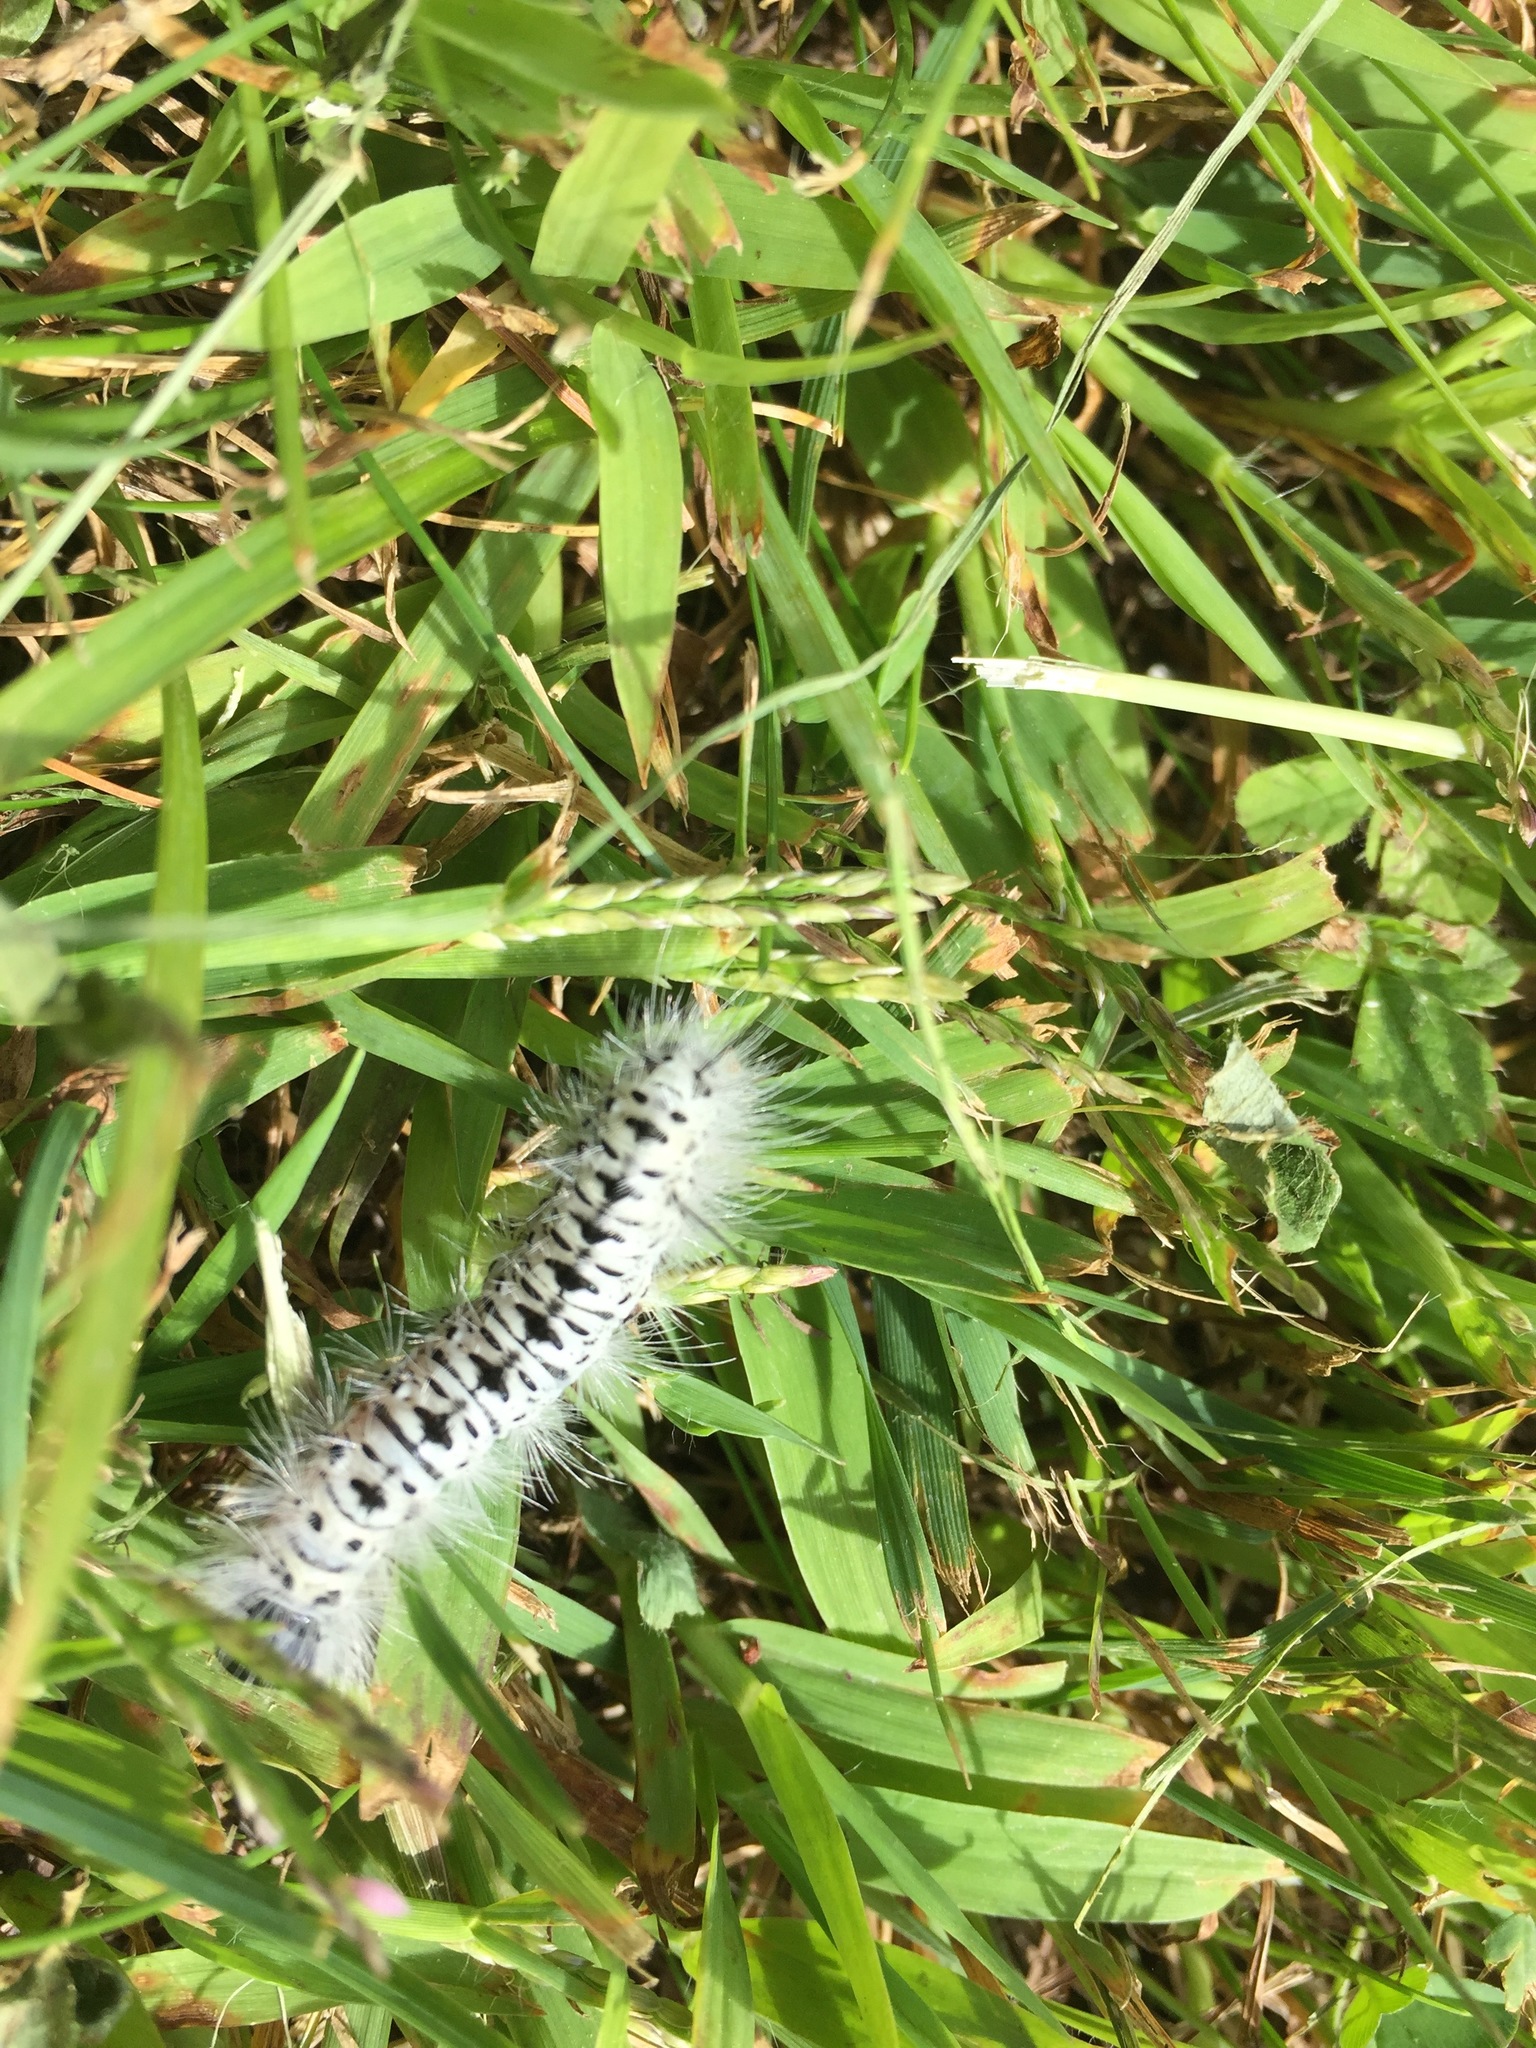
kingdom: Animalia
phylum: Arthropoda
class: Insecta
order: Lepidoptera
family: Erebidae
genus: Lophocampa
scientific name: Lophocampa caryae
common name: Hickory tussock moth
